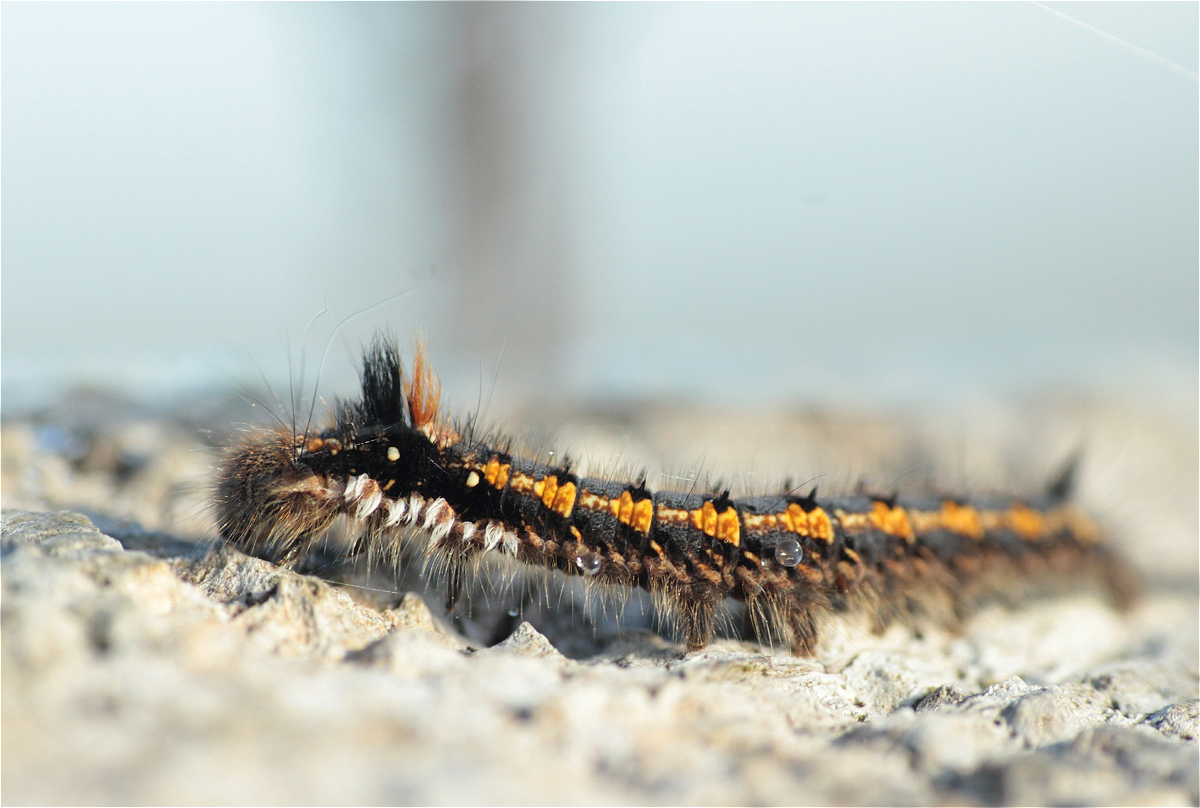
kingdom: Animalia
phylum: Arthropoda
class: Insecta
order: Lepidoptera
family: Lasiocampidae
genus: Euthrix
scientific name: Euthrix potatoria
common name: Drinker
